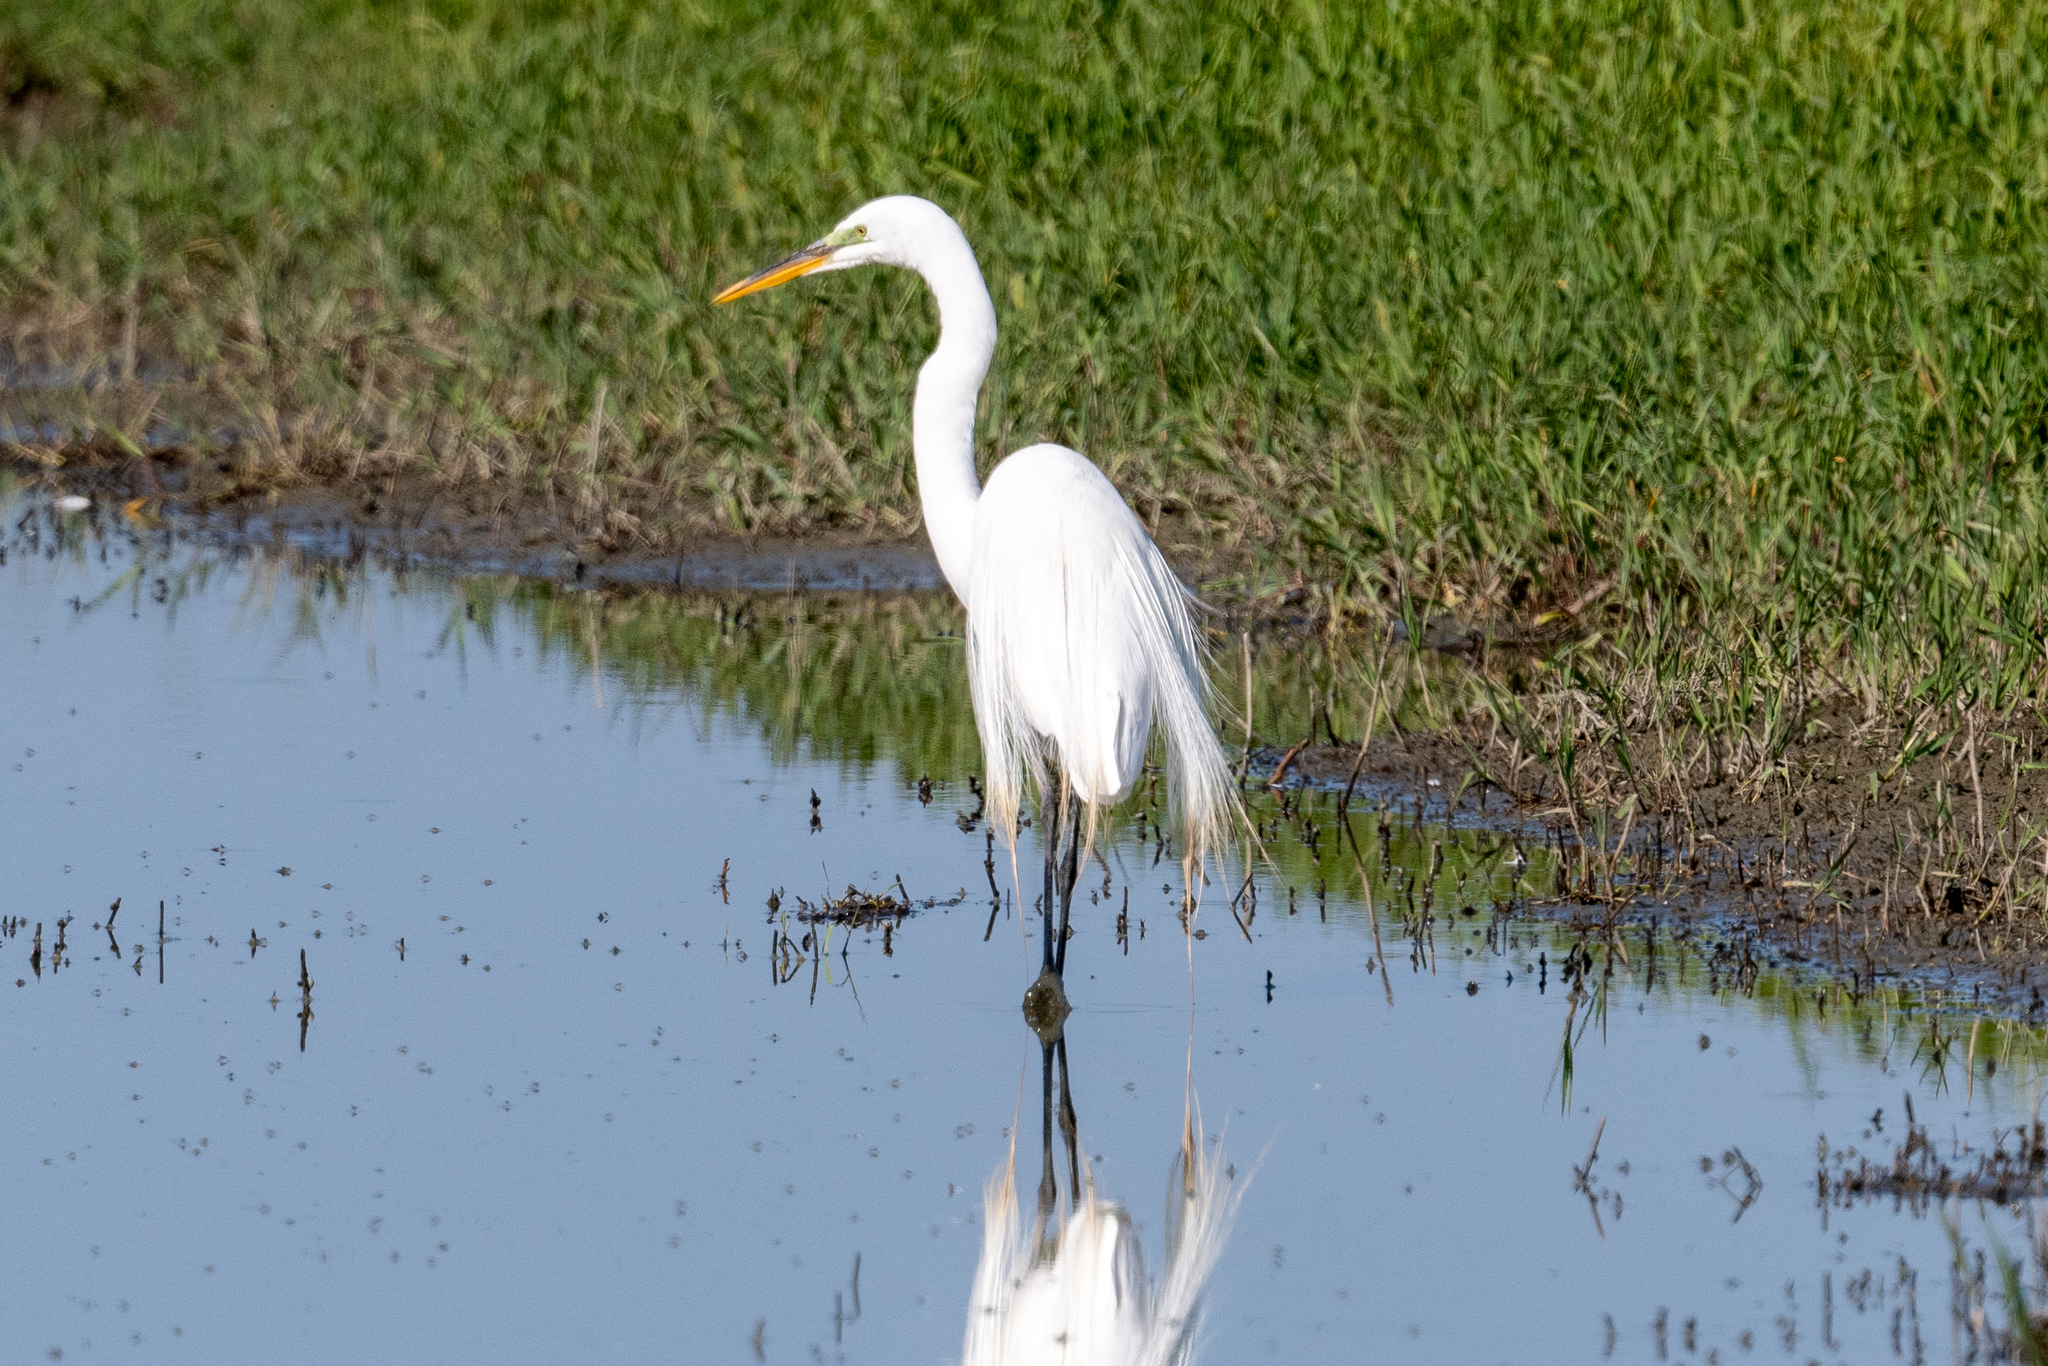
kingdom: Animalia
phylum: Chordata
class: Aves
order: Pelecaniformes
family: Ardeidae
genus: Ardea
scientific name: Ardea alba
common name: Great egret
